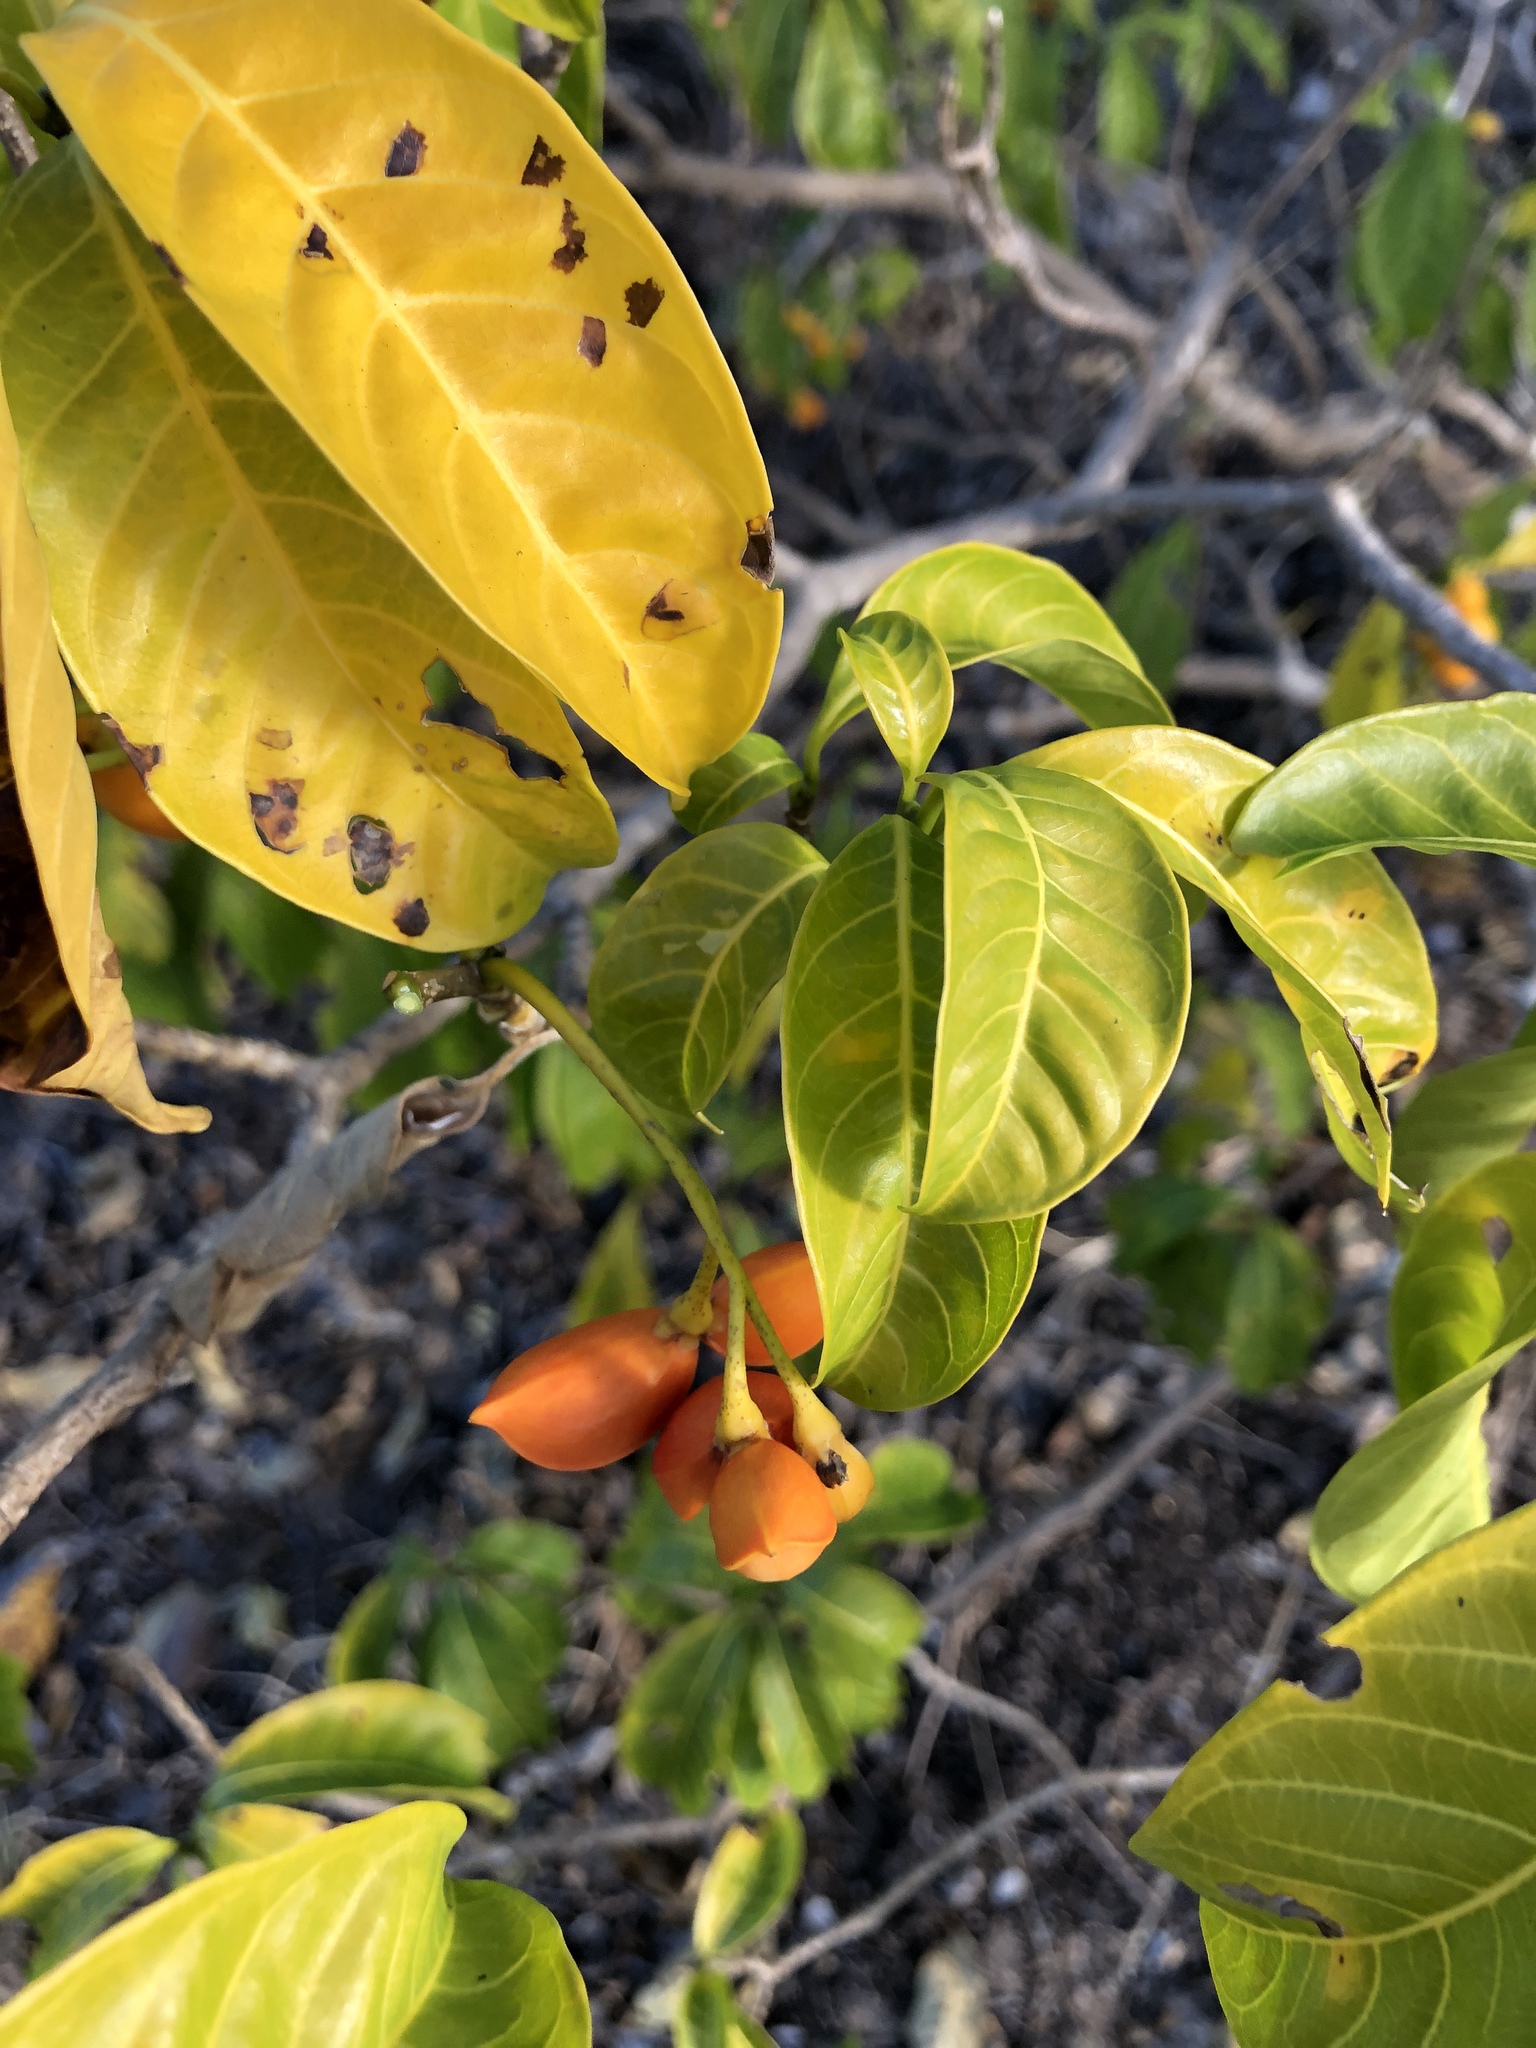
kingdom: Plantae
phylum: Tracheophyta
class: Magnoliopsida
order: Gentianales
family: Apocynaceae
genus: Tabernaemontana
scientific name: Tabernaemontana pandacaqui
